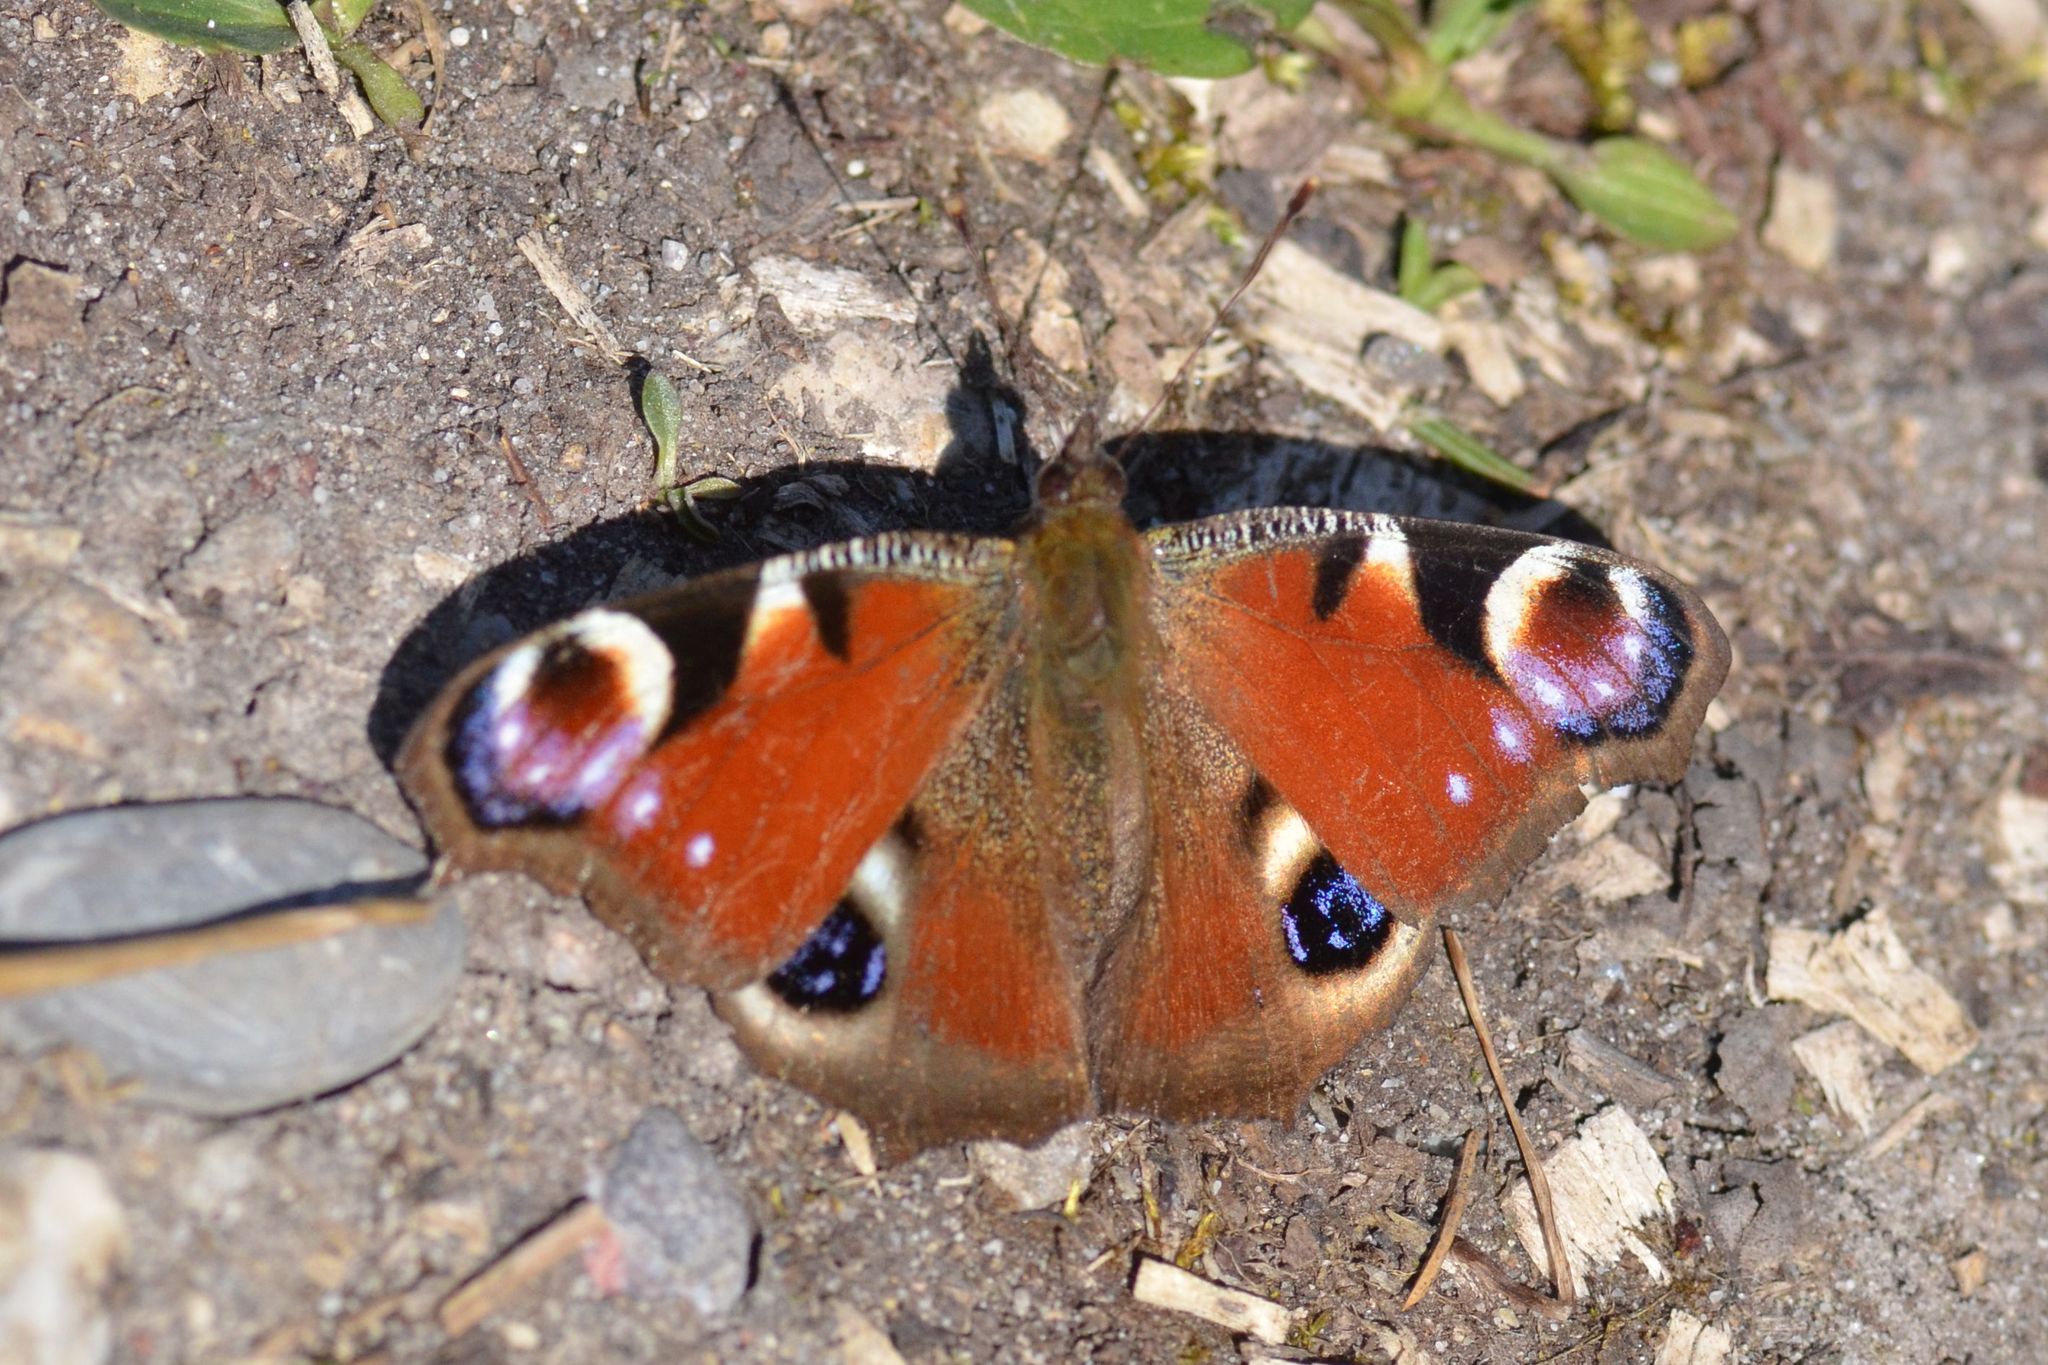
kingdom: Animalia
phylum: Arthropoda
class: Insecta
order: Lepidoptera
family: Nymphalidae
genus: Aglais
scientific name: Aglais io
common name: Peacock
